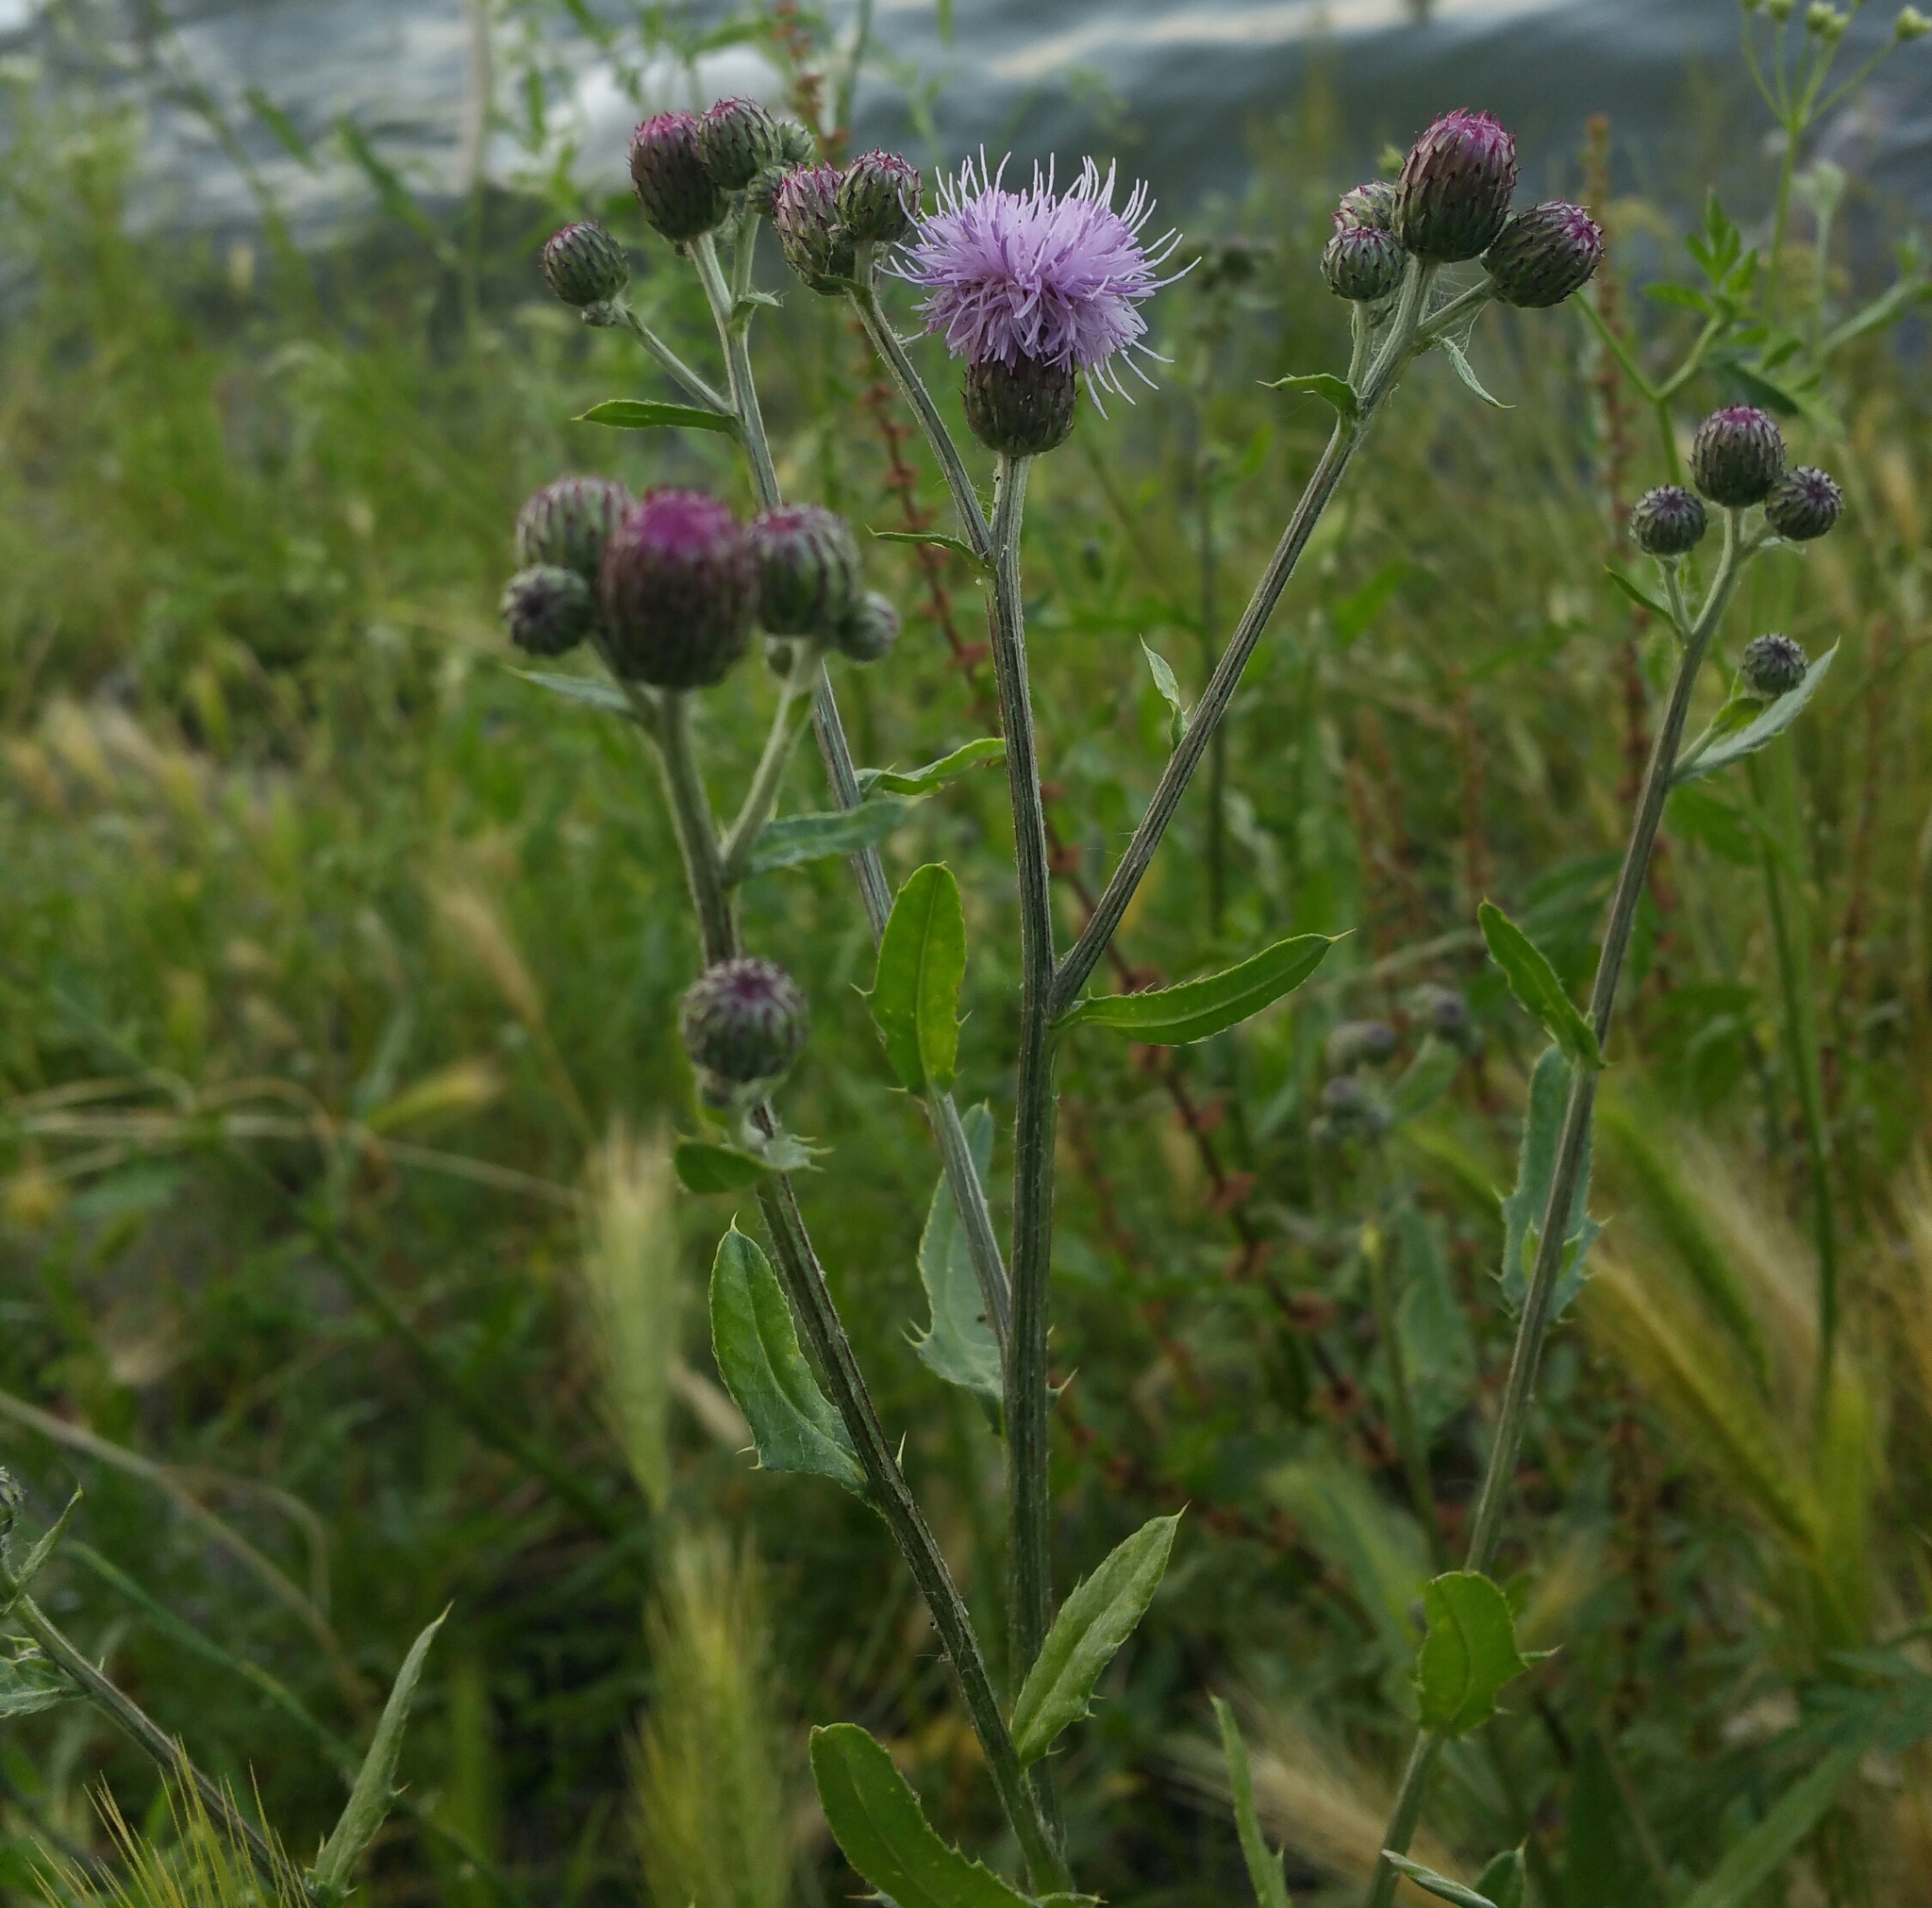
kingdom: Plantae
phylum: Tracheophyta
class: Magnoliopsida
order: Asterales
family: Asteraceae
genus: Cirsium
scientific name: Cirsium arvense
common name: Creeping thistle
